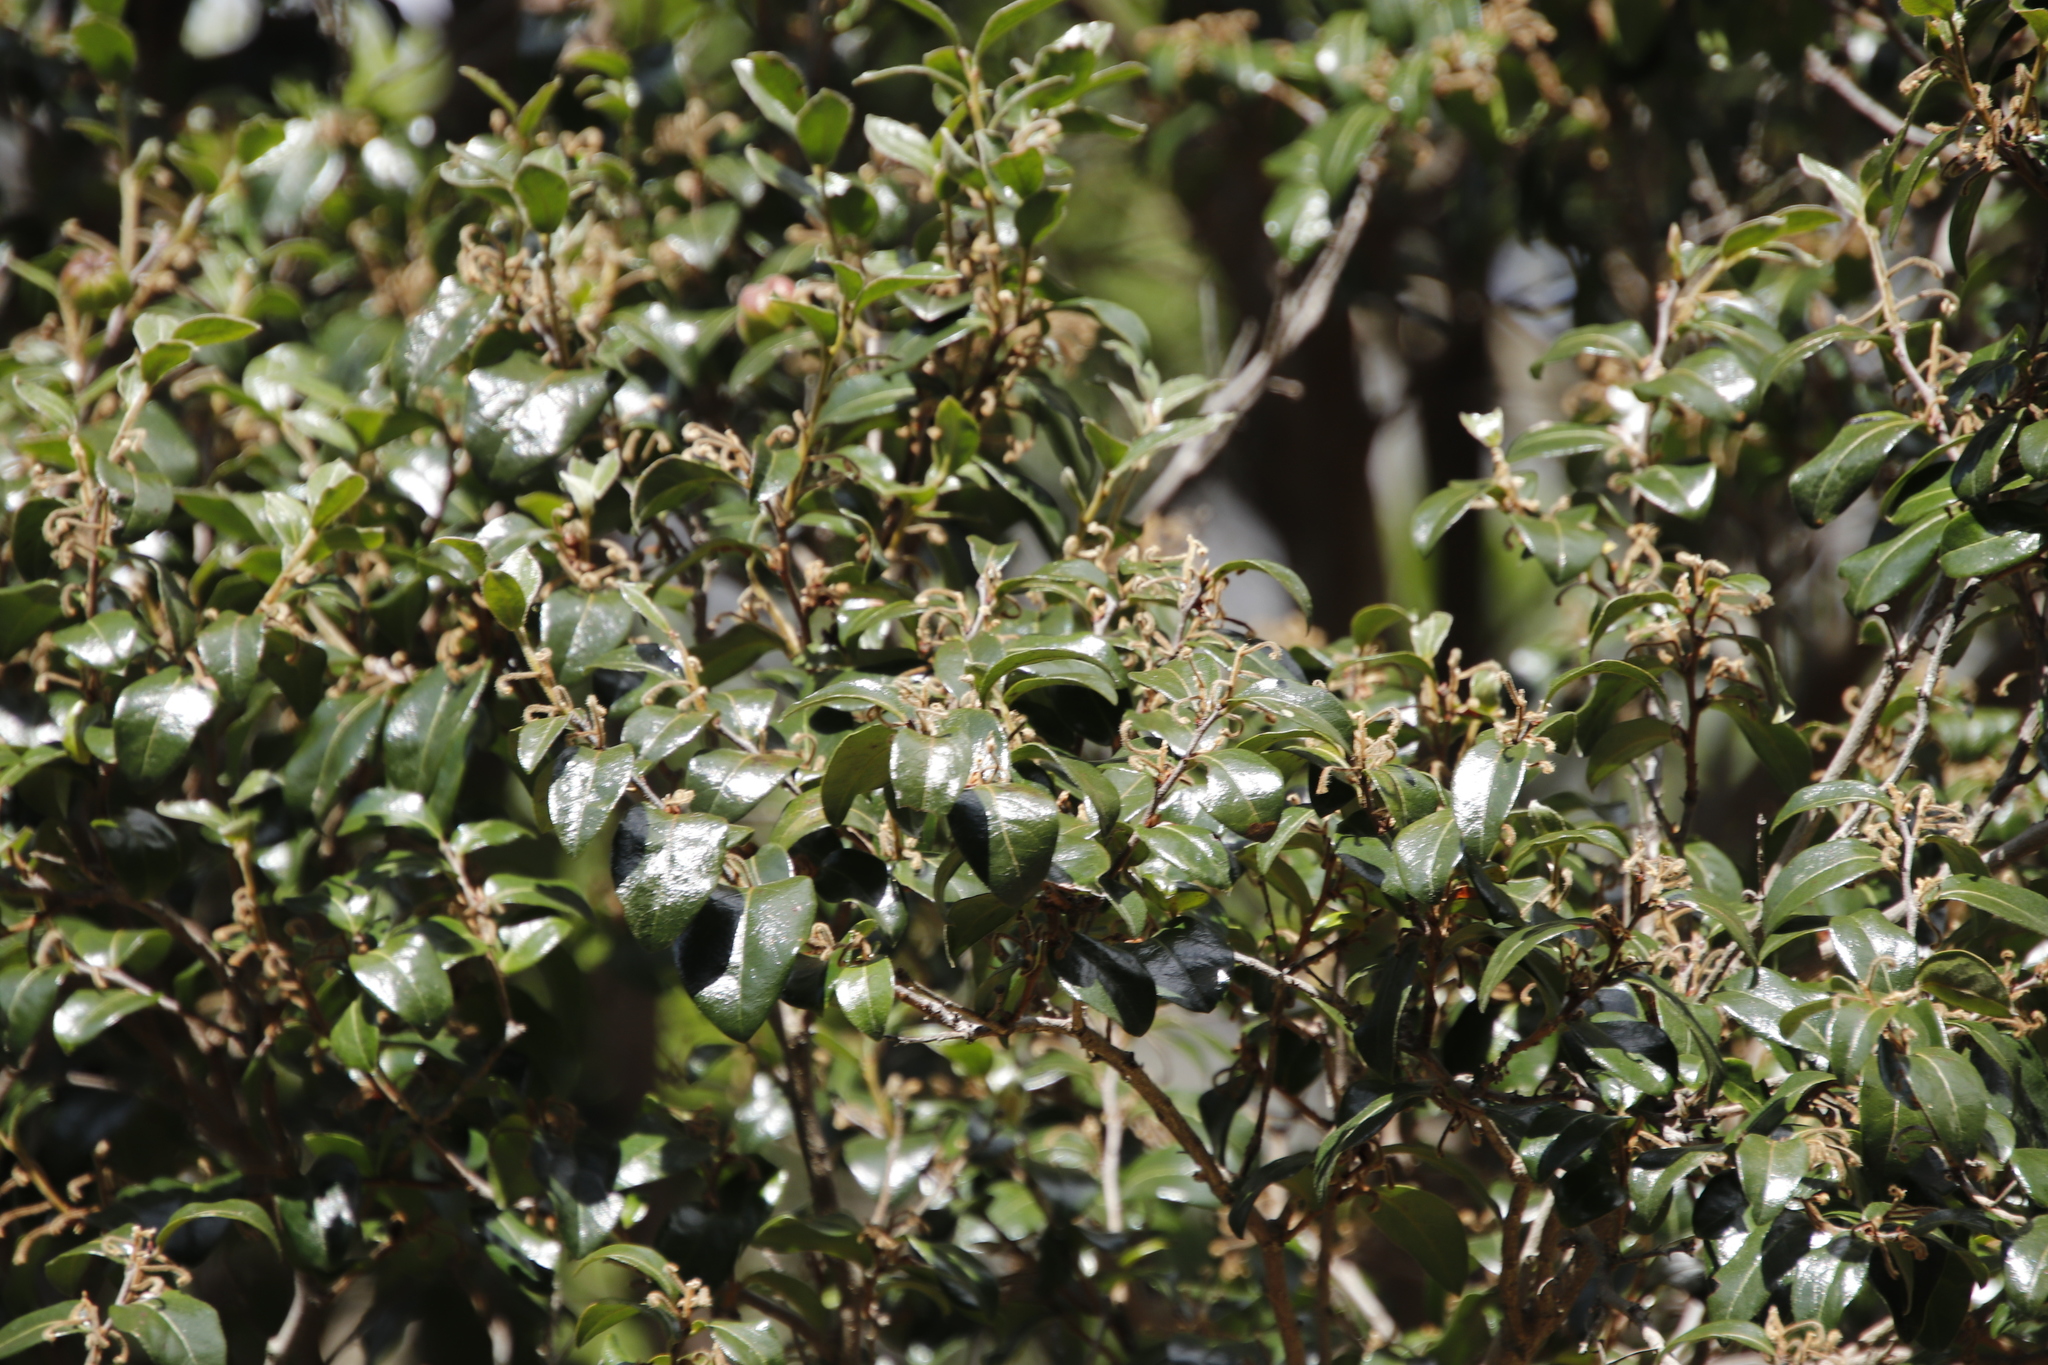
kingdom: Plantae
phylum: Tracheophyta
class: Magnoliopsida
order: Ericales
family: Ebenaceae
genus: Diospyros
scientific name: Diospyros whyteana
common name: Bladder-nut
